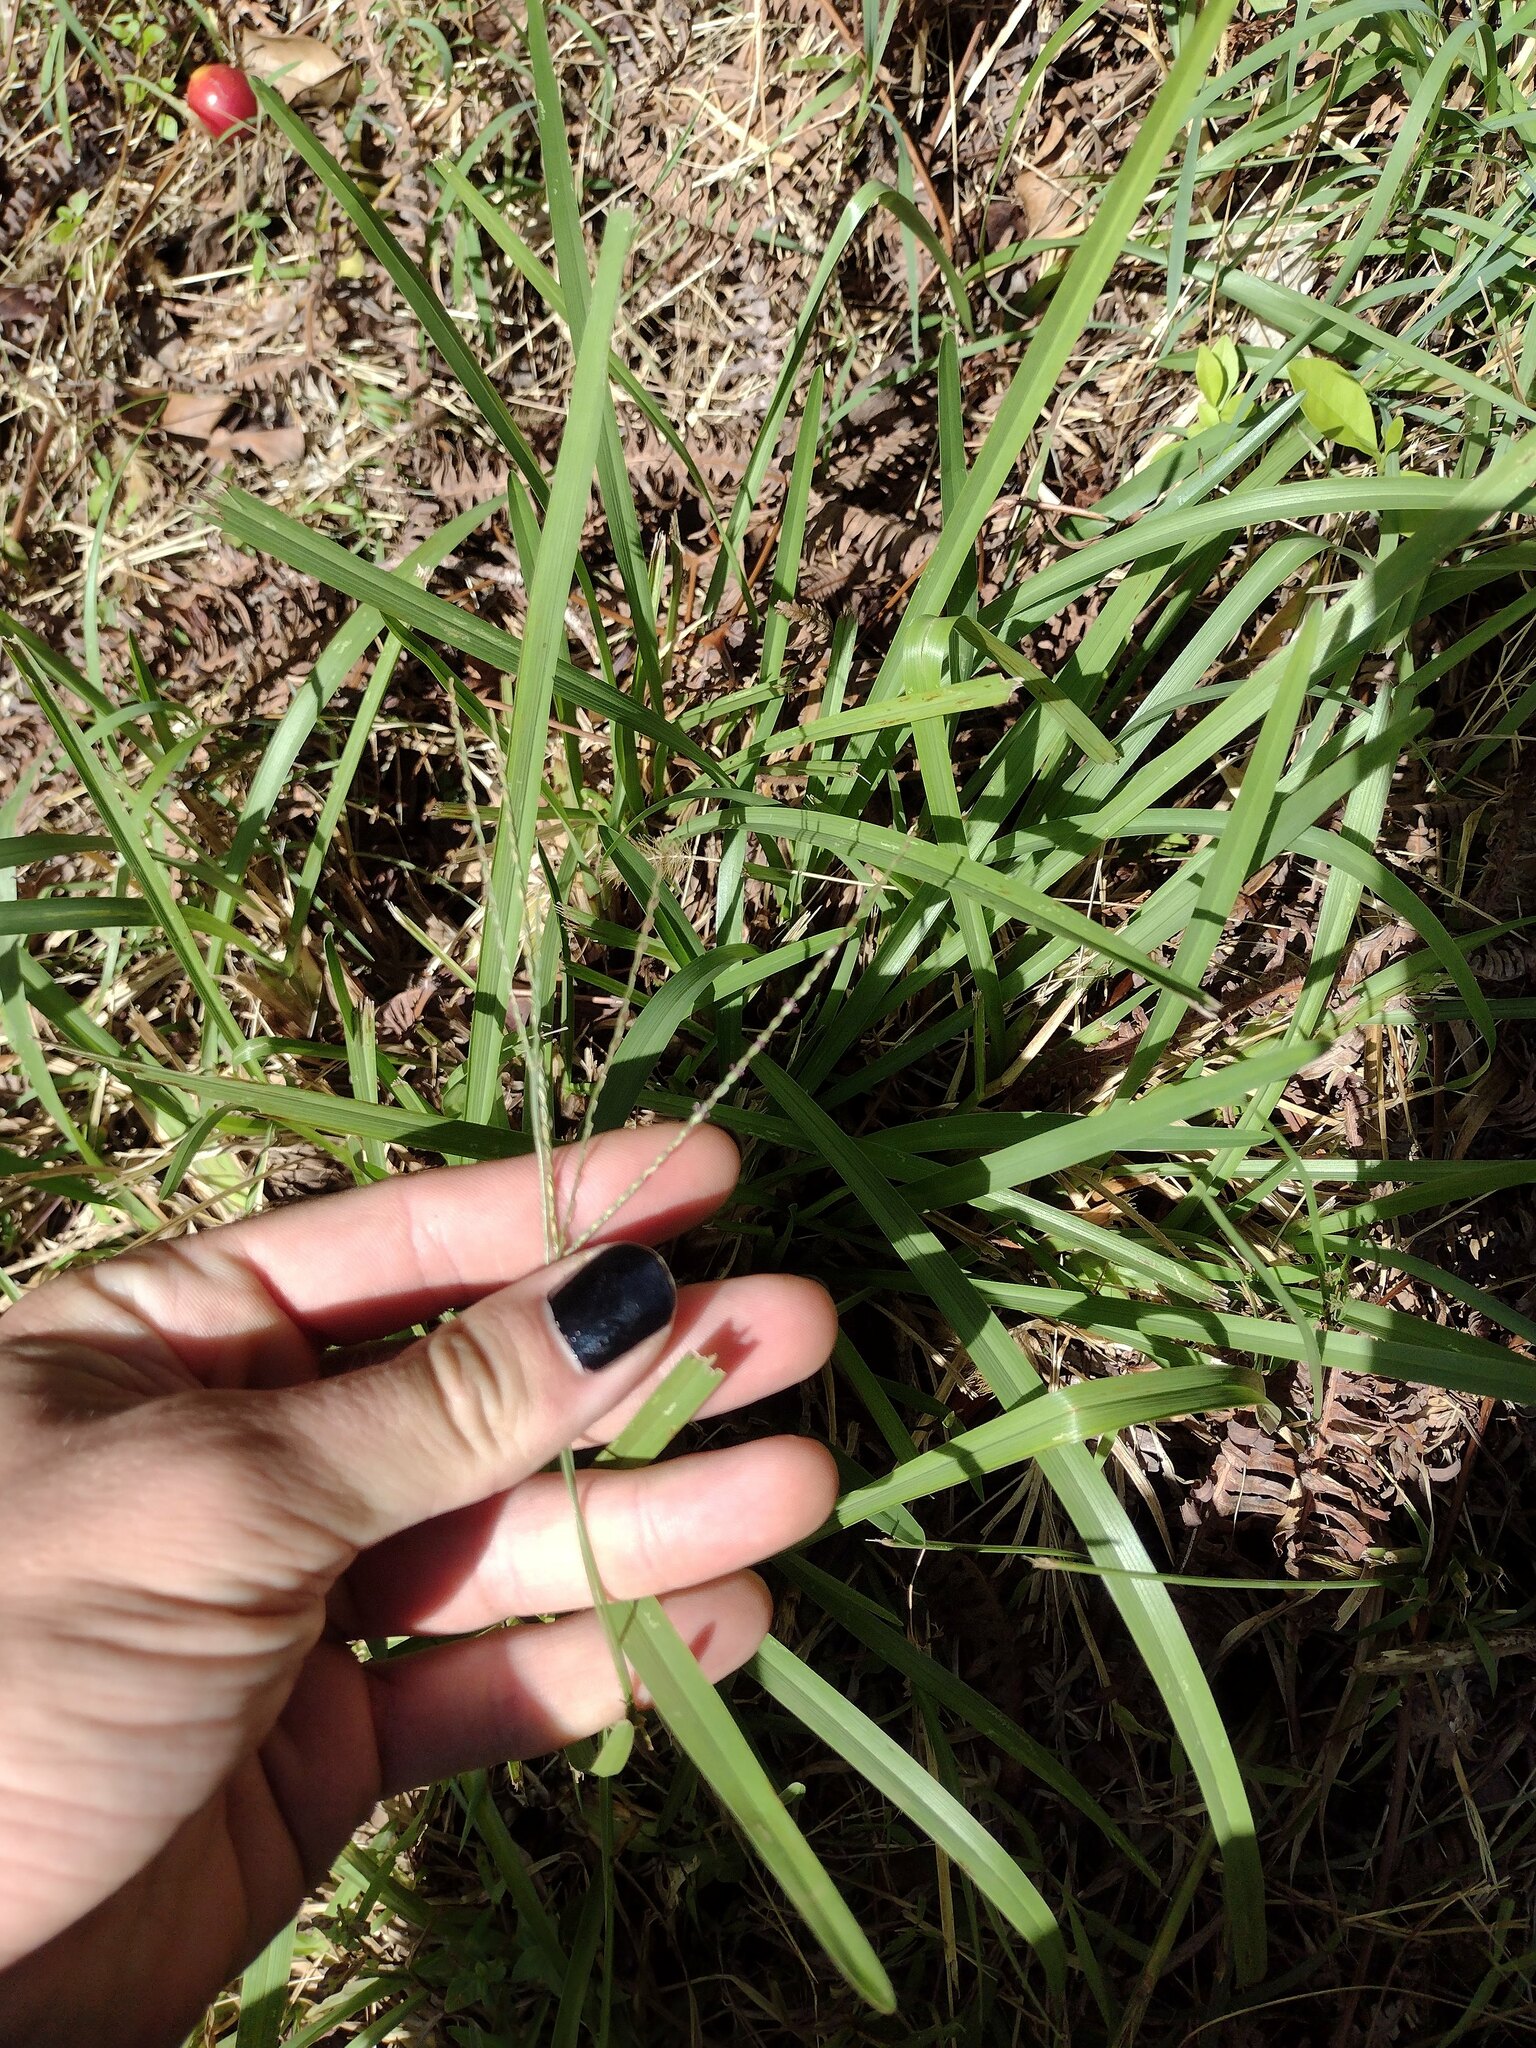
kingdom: Plantae
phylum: Tracheophyta
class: Liliopsida
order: Poales
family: Poaceae
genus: Axonopus
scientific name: Axonopus fissifolius
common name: Common carpetgrass
